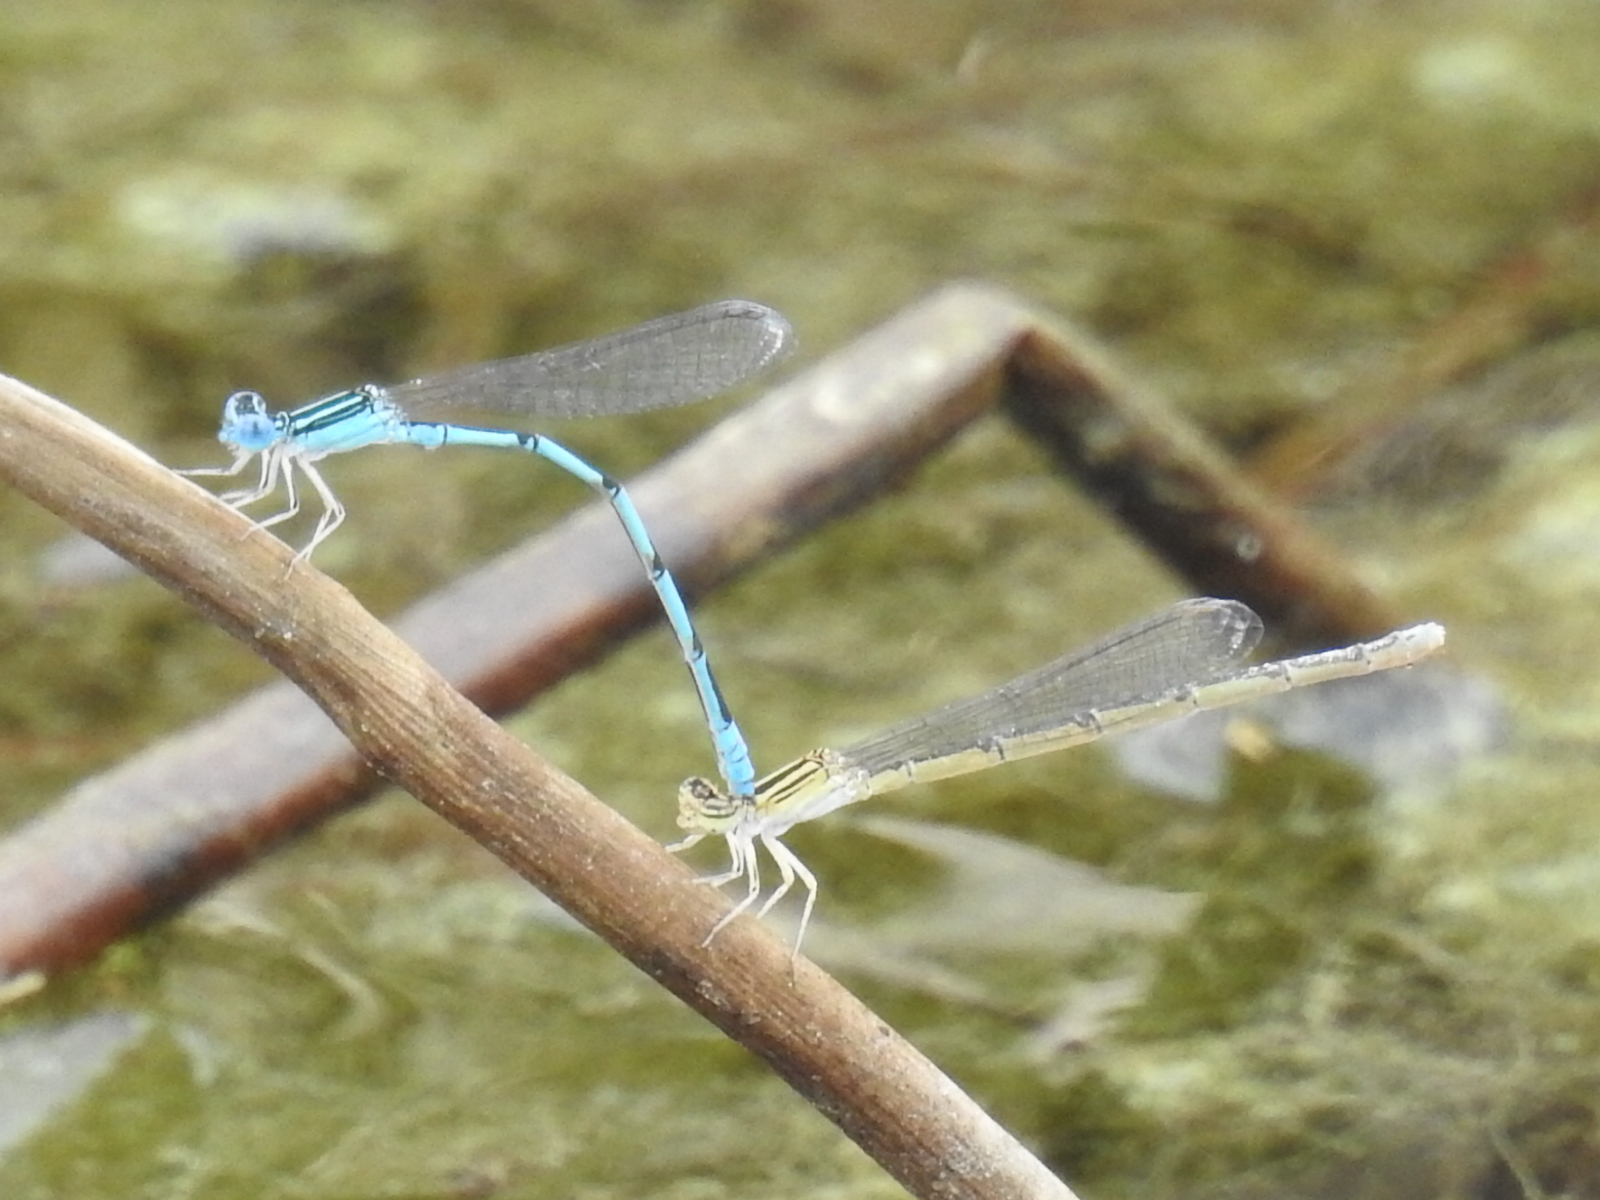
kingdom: Animalia
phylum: Arthropoda
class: Insecta
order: Odonata
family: Coenagrionidae
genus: Enallagma
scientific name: Enallagma basidens
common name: Double-striped bluet
